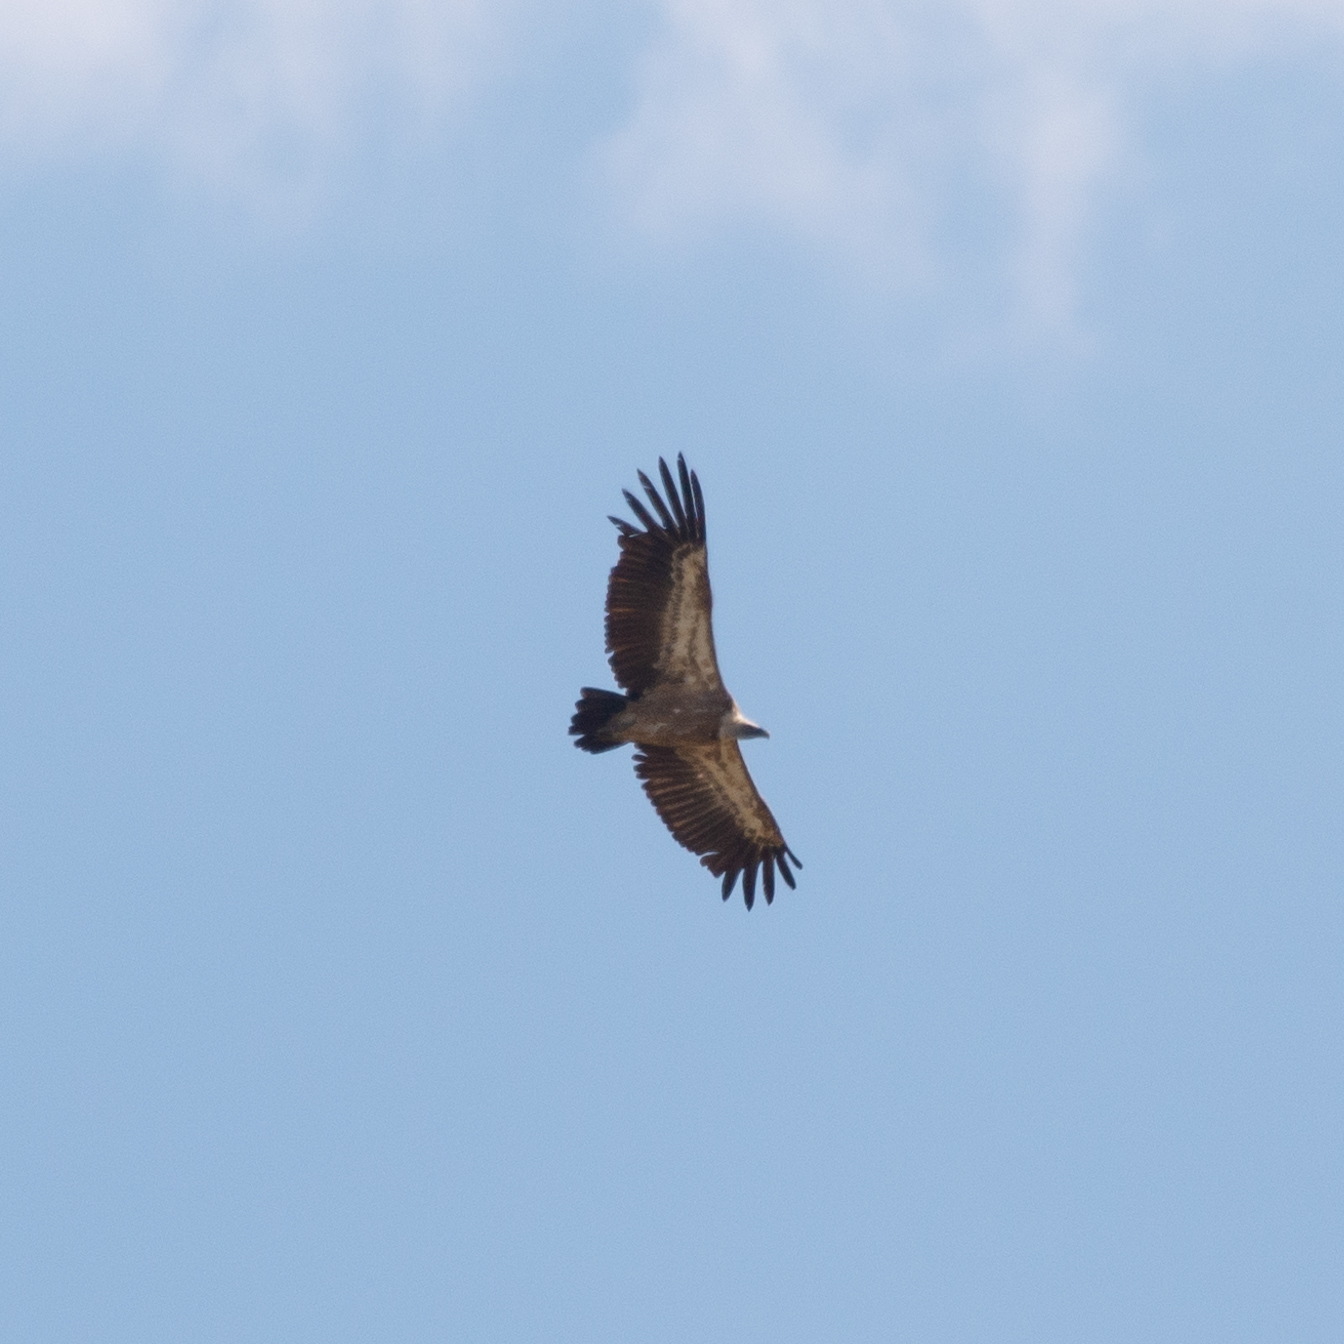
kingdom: Animalia
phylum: Chordata
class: Aves
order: Accipitriformes
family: Accipitridae
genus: Gyps
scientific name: Gyps fulvus
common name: Griffon vulture
